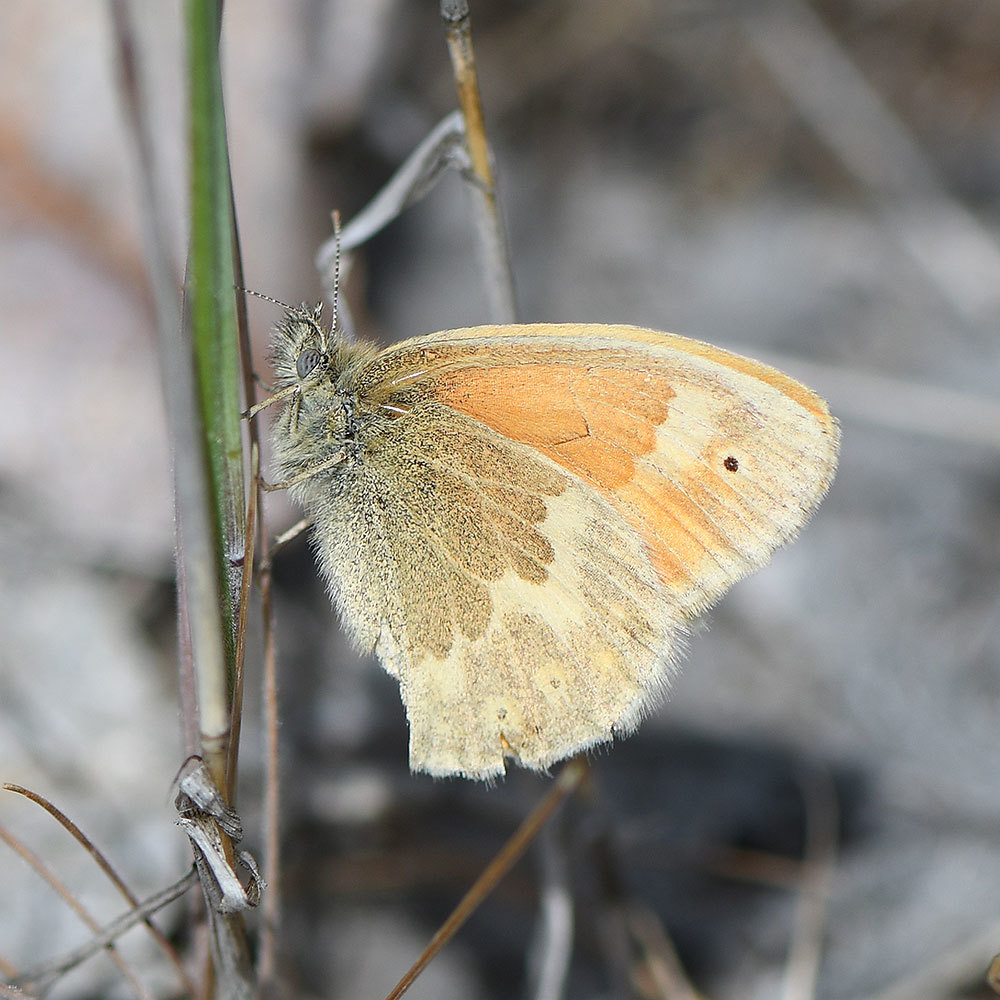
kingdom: Animalia
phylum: Arthropoda
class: Insecta
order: Lepidoptera
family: Nymphalidae
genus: Coenonympha
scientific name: Coenonympha california
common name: Common ringlet
